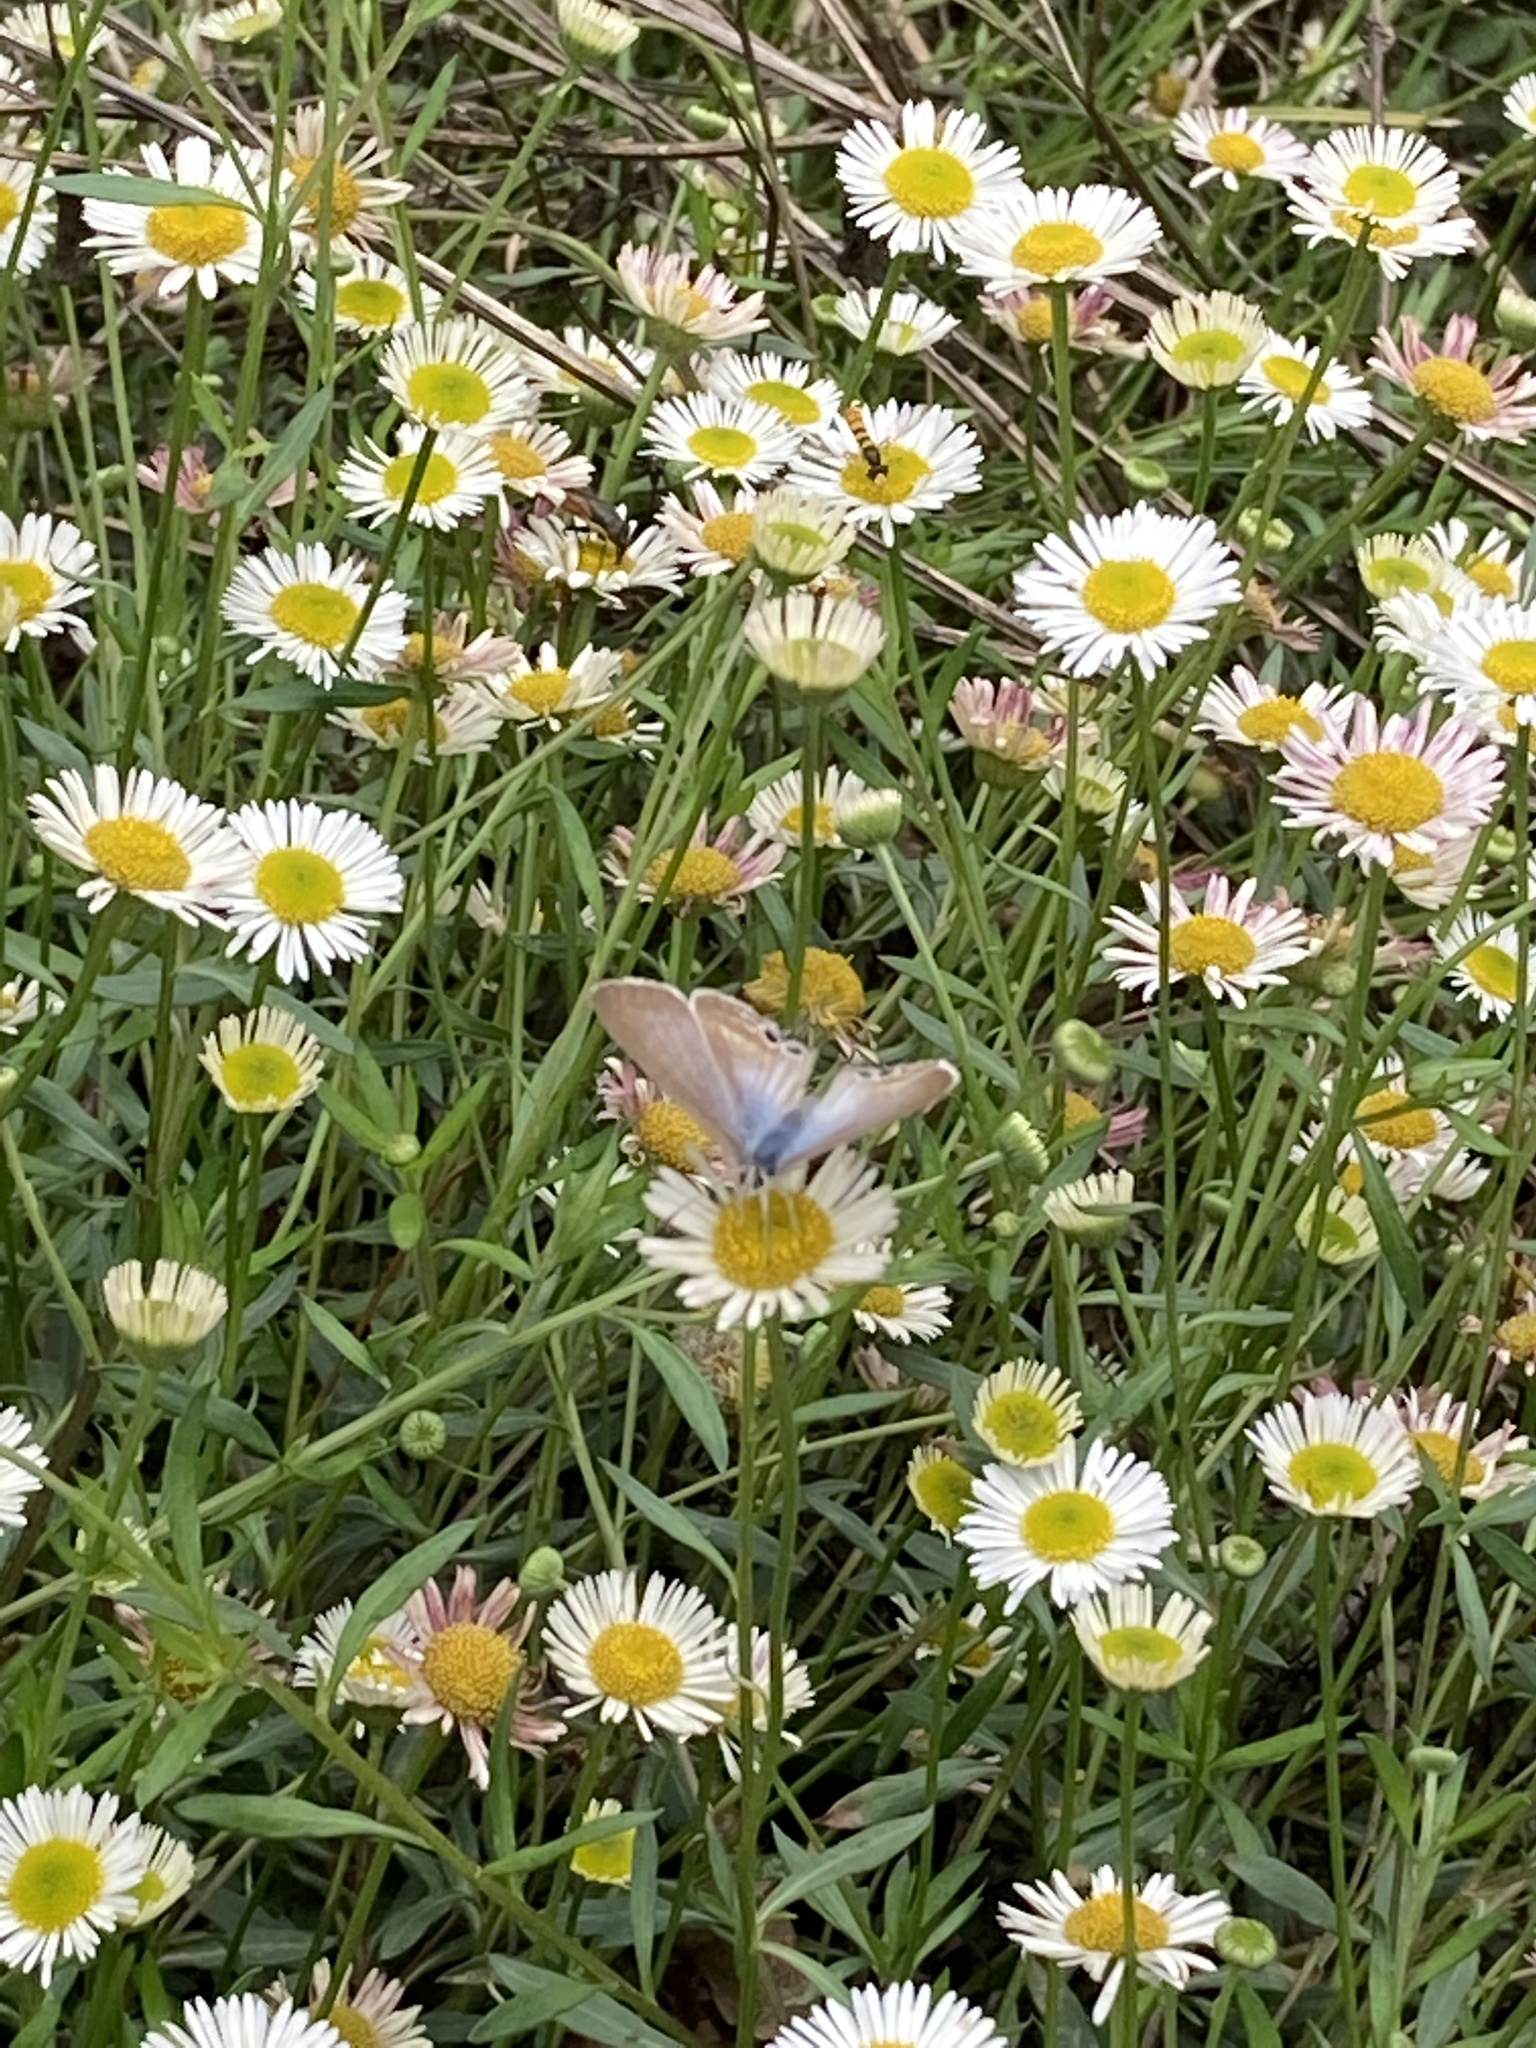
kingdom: Animalia
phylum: Arthropoda
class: Insecta
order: Lepidoptera
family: Lycaenidae
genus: Lampides
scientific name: Lampides boeticus
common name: Long-tailed blue
